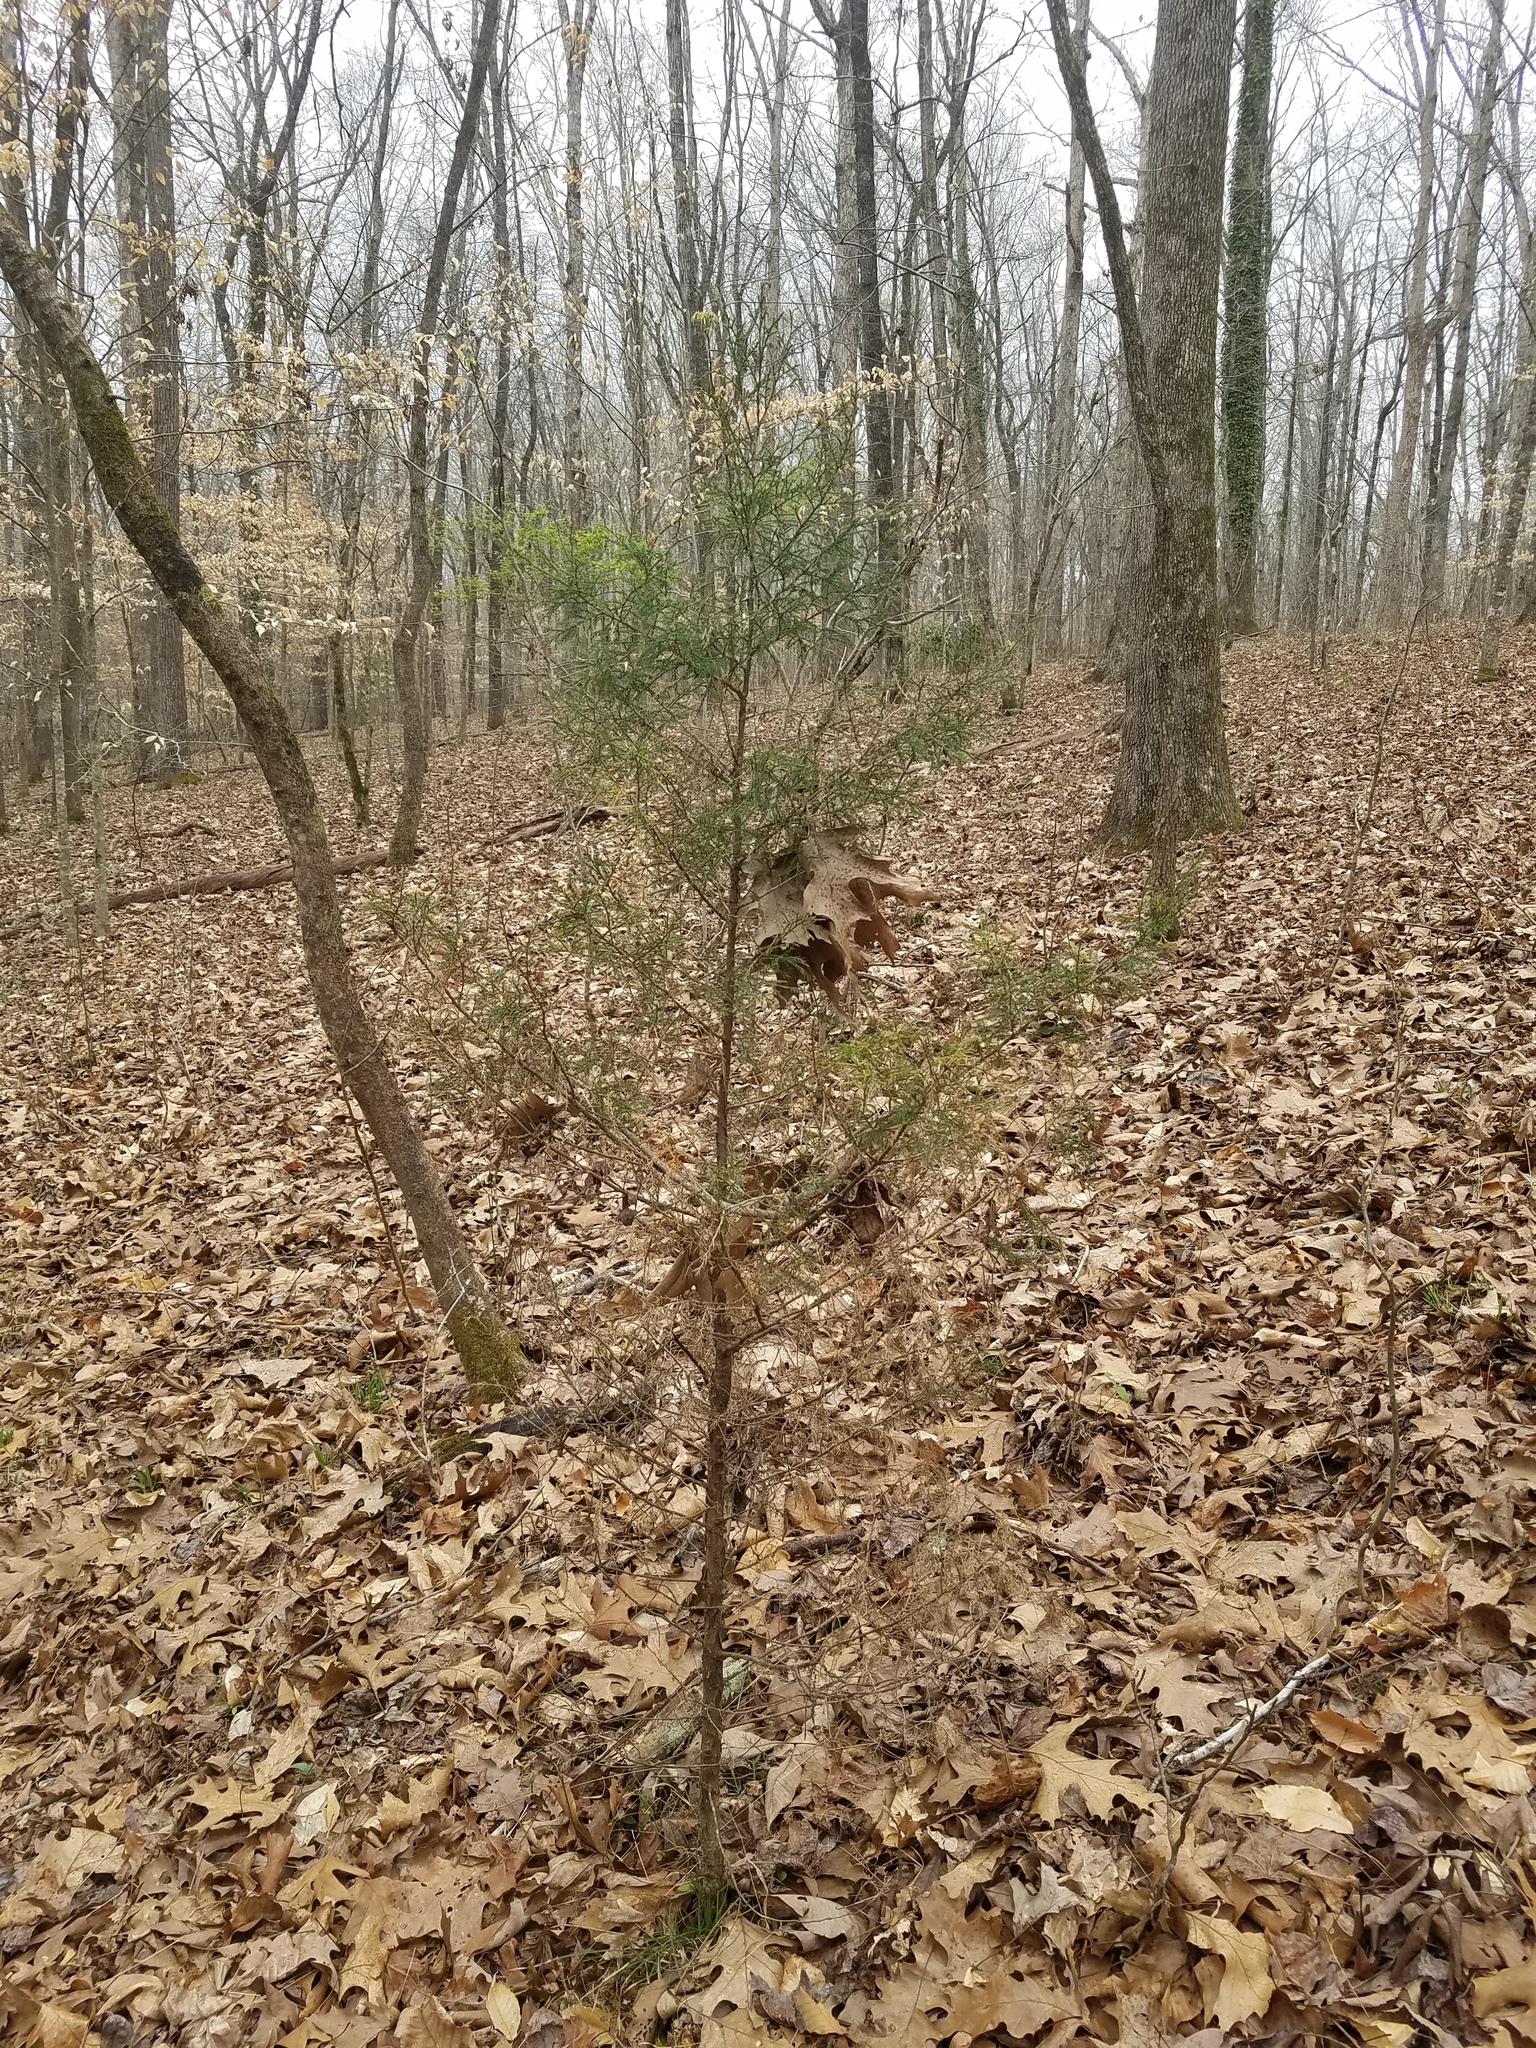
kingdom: Plantae
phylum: Tracheophyta
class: Pinopsida
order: Pinales
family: Cupressaceae
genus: Juniperus
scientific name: Juniperus virginiana
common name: Red juniper
